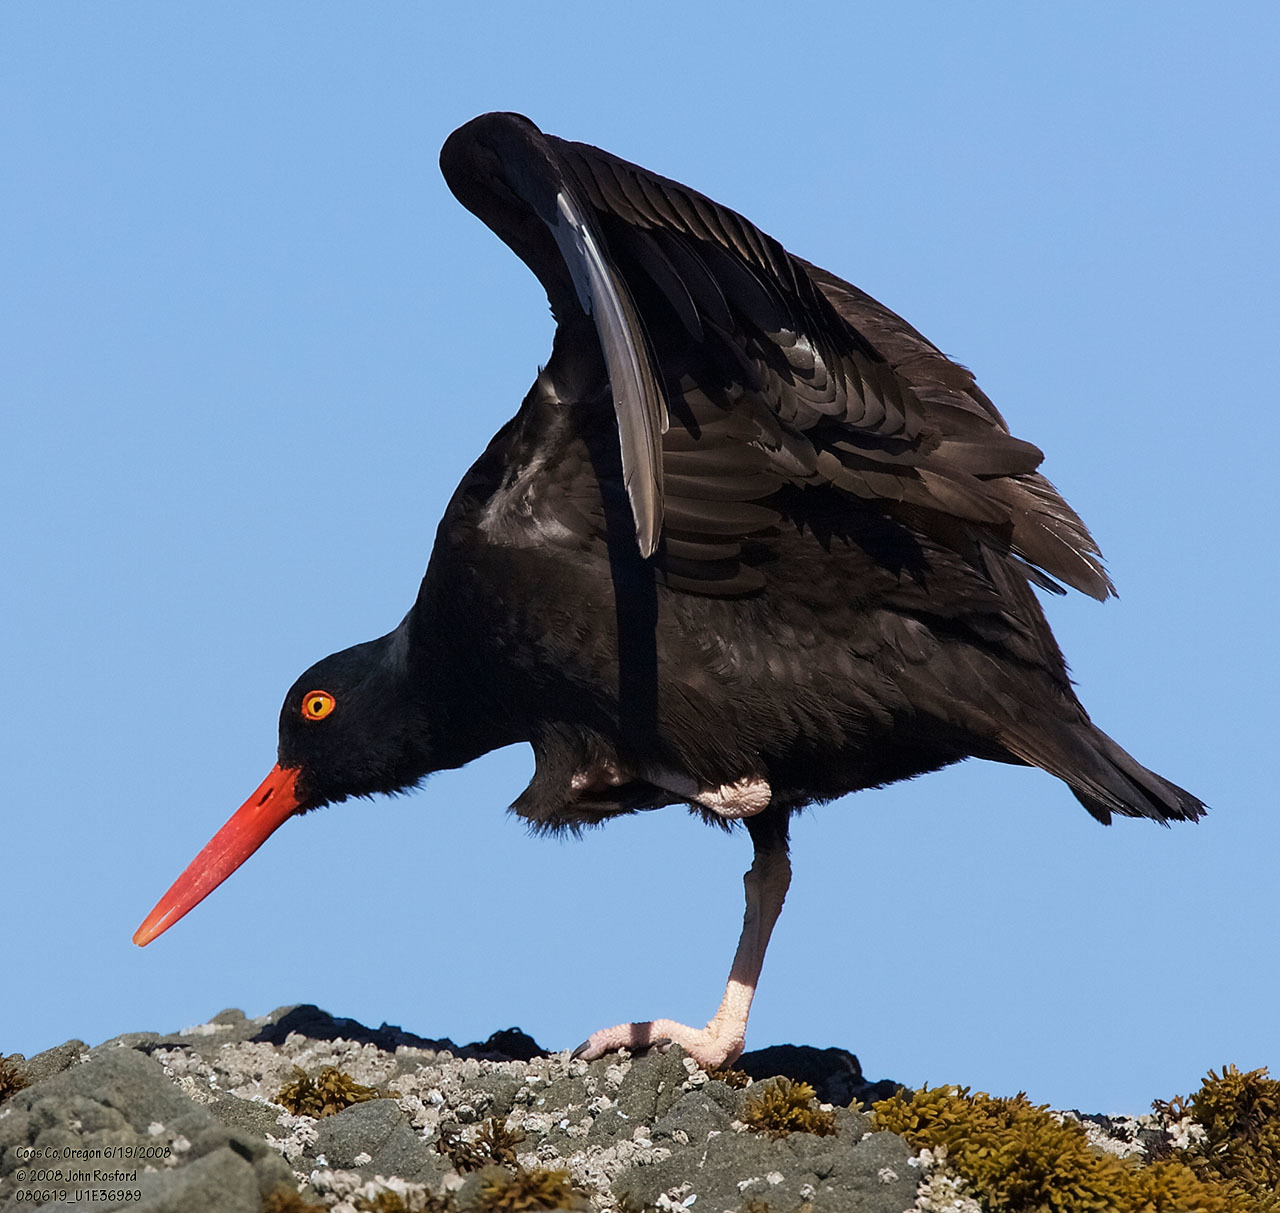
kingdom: Animalia
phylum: Chordata
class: Aves
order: Charadriiformes
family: Haematopodidae
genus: Haematopus
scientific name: Haematopus bachmani
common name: Black oystercatcher
